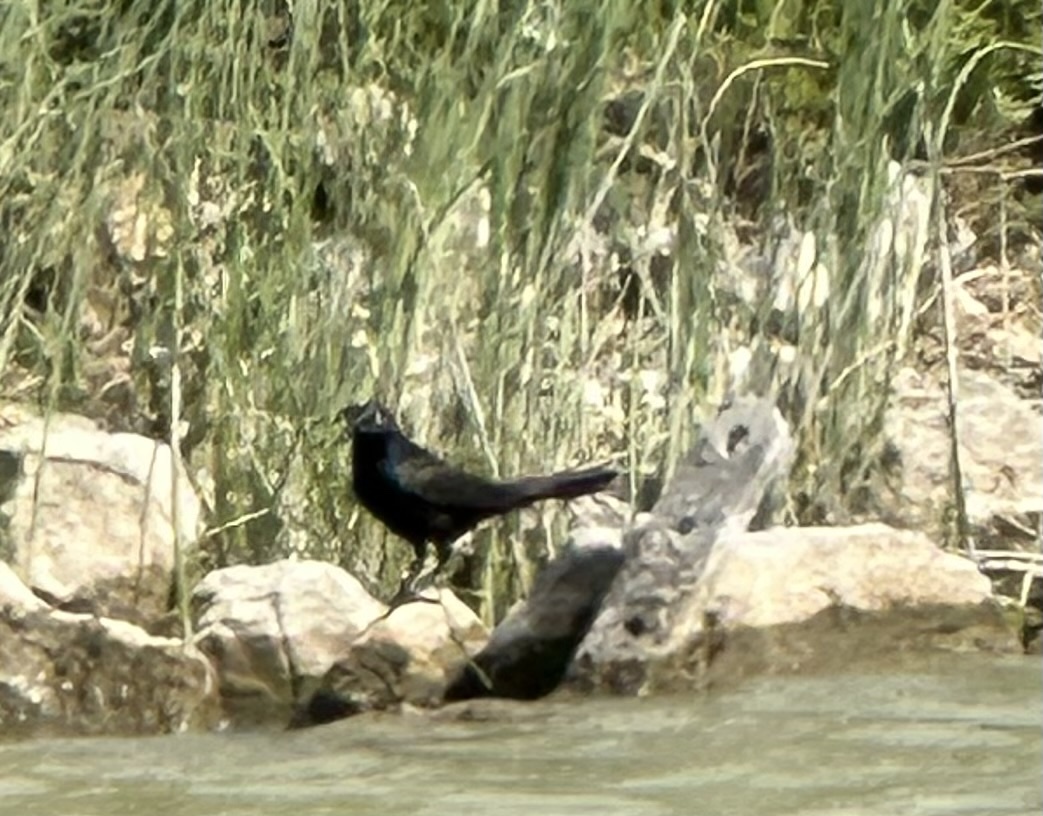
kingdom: Animalia
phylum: Chordata
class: Aves
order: Passeriformes
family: Icteridae
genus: Quiscalus
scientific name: Quiscalus quiscula
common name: Common grackle
